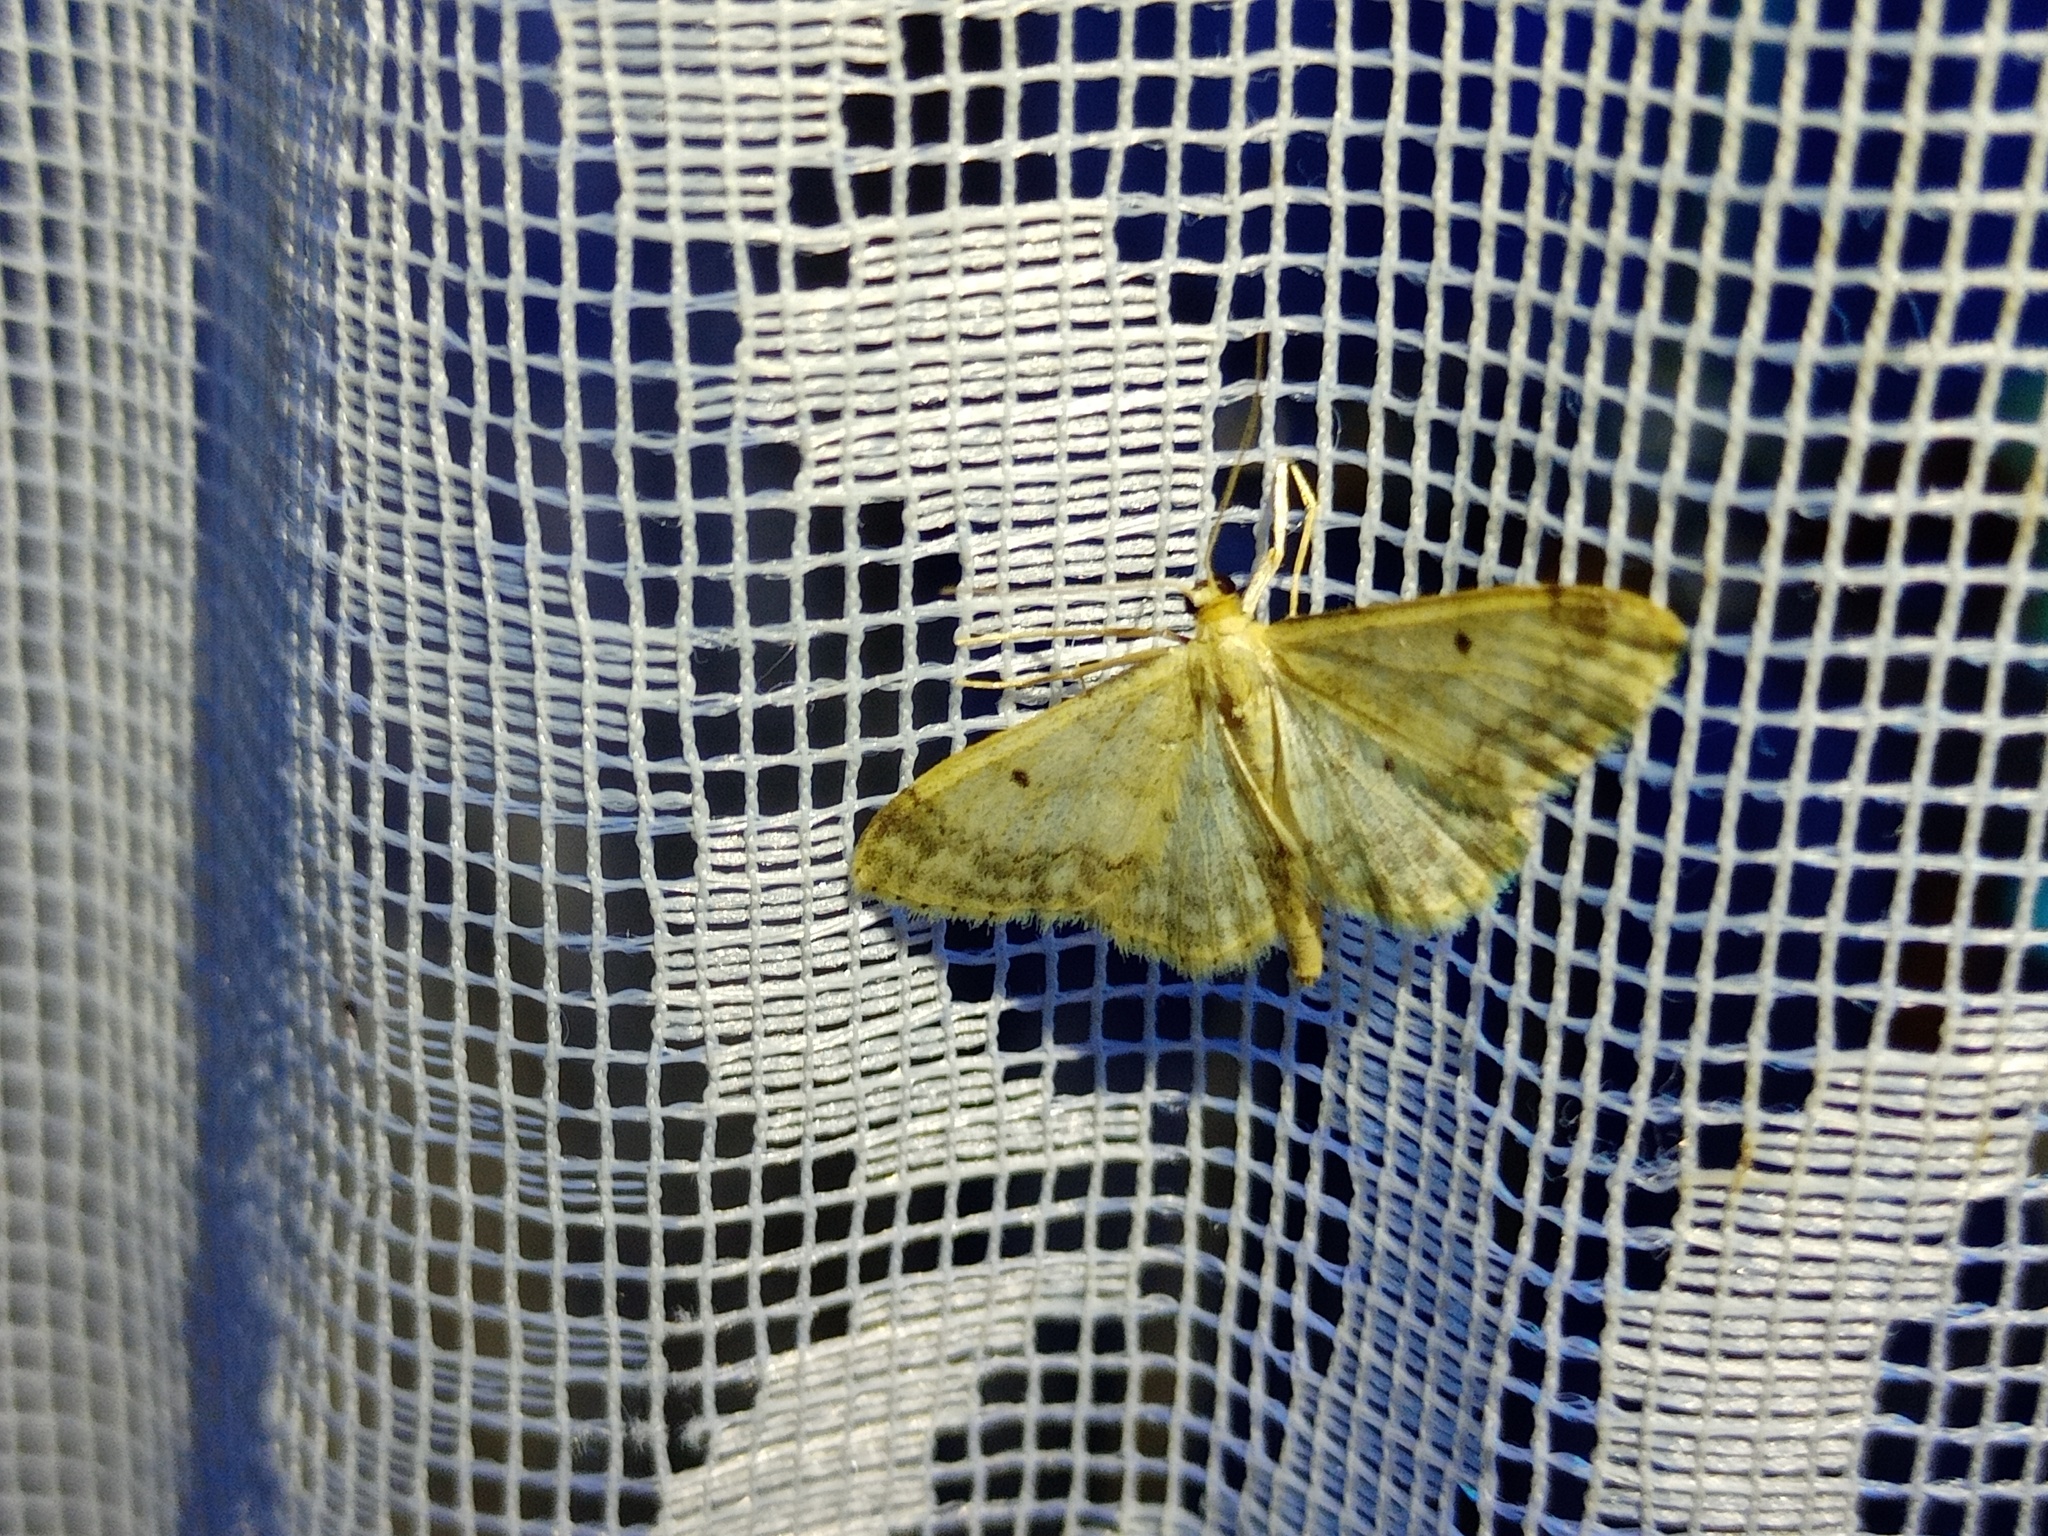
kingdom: Animalia
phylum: Arthropoda
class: Insecta
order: Lepidoptera
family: Geometridae
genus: Idaea
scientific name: Idaea biselata
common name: Small fan-footed wave
